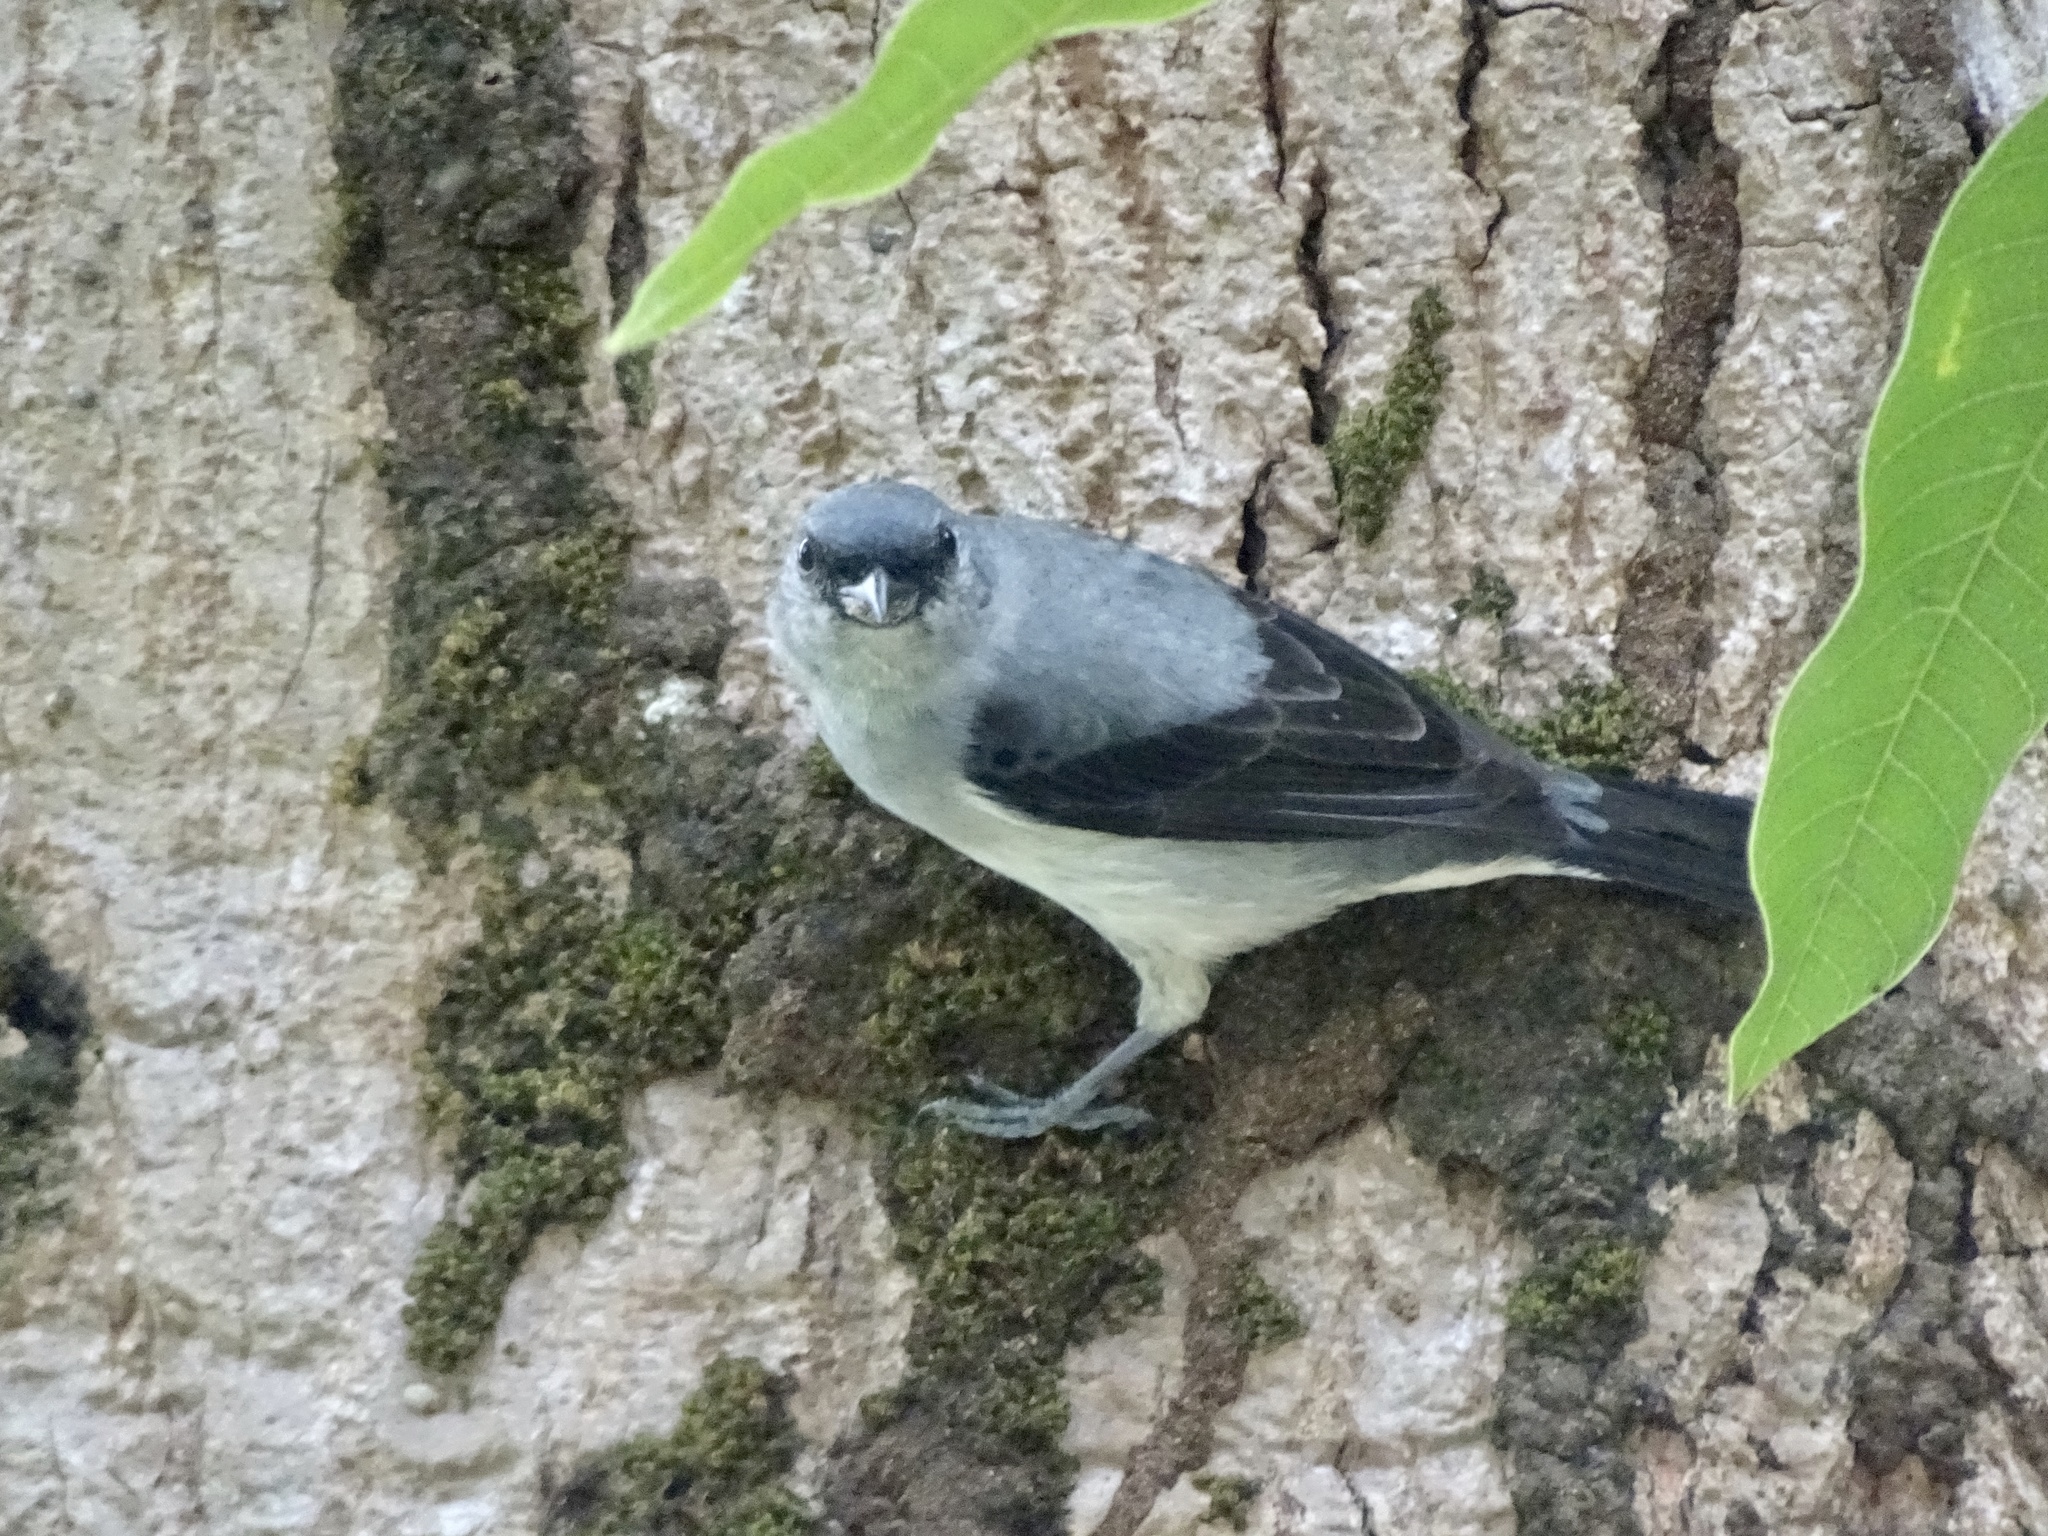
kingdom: Animalia
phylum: Chordata
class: Aves
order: Passeriformes
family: Thraupidae
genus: Tangara
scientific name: Tangara inornata
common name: Plain-colored tanager
